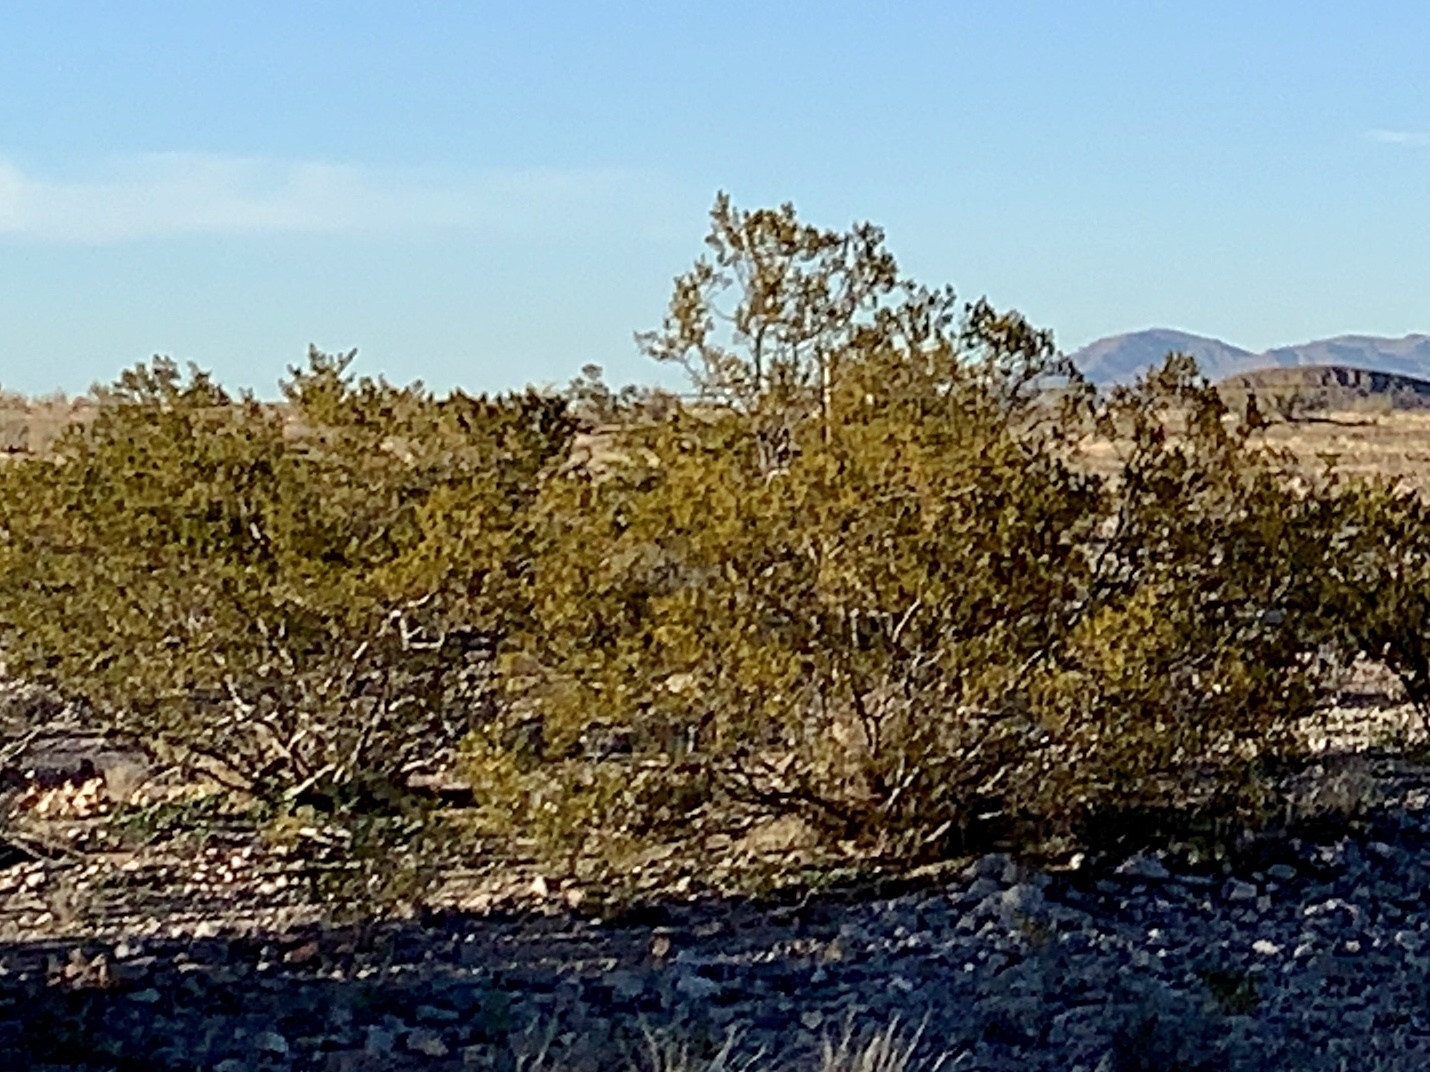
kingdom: Plantae
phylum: Tracheophyta
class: Magnoliopsida
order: Zygophyllales
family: Zygophyllaceae
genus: Larrea
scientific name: Larrea tridentata
